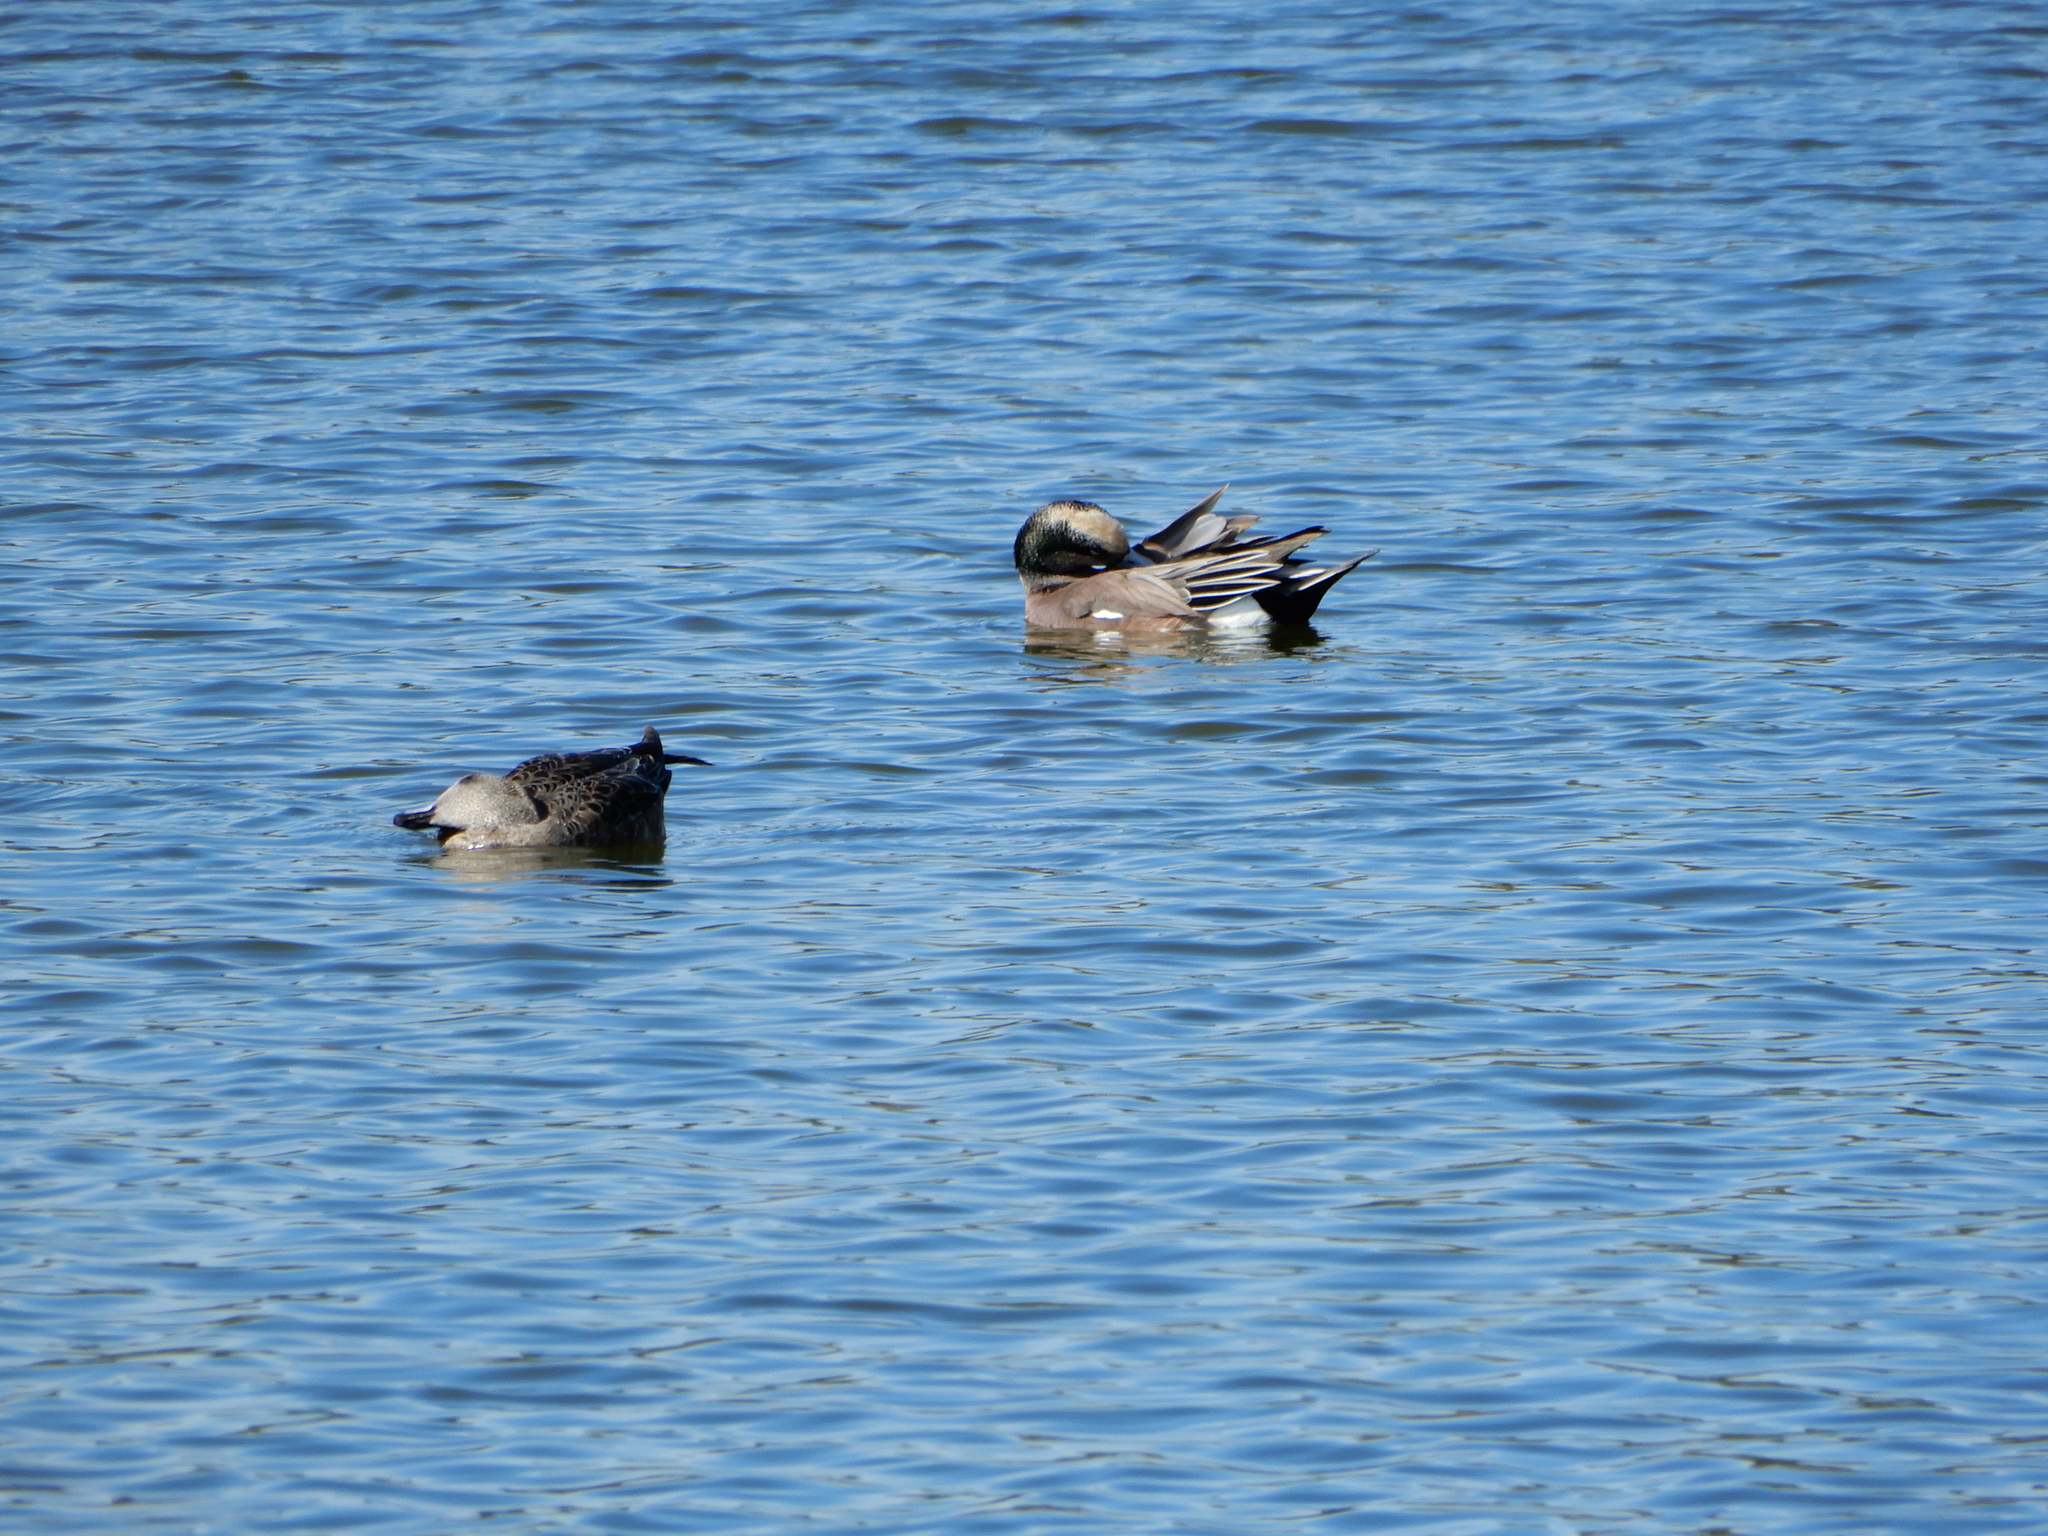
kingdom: Animalia
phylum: Chordata
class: Aves
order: Anseriformes
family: Anatidae
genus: Mareca
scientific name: Mareca americana
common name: American wigeon
